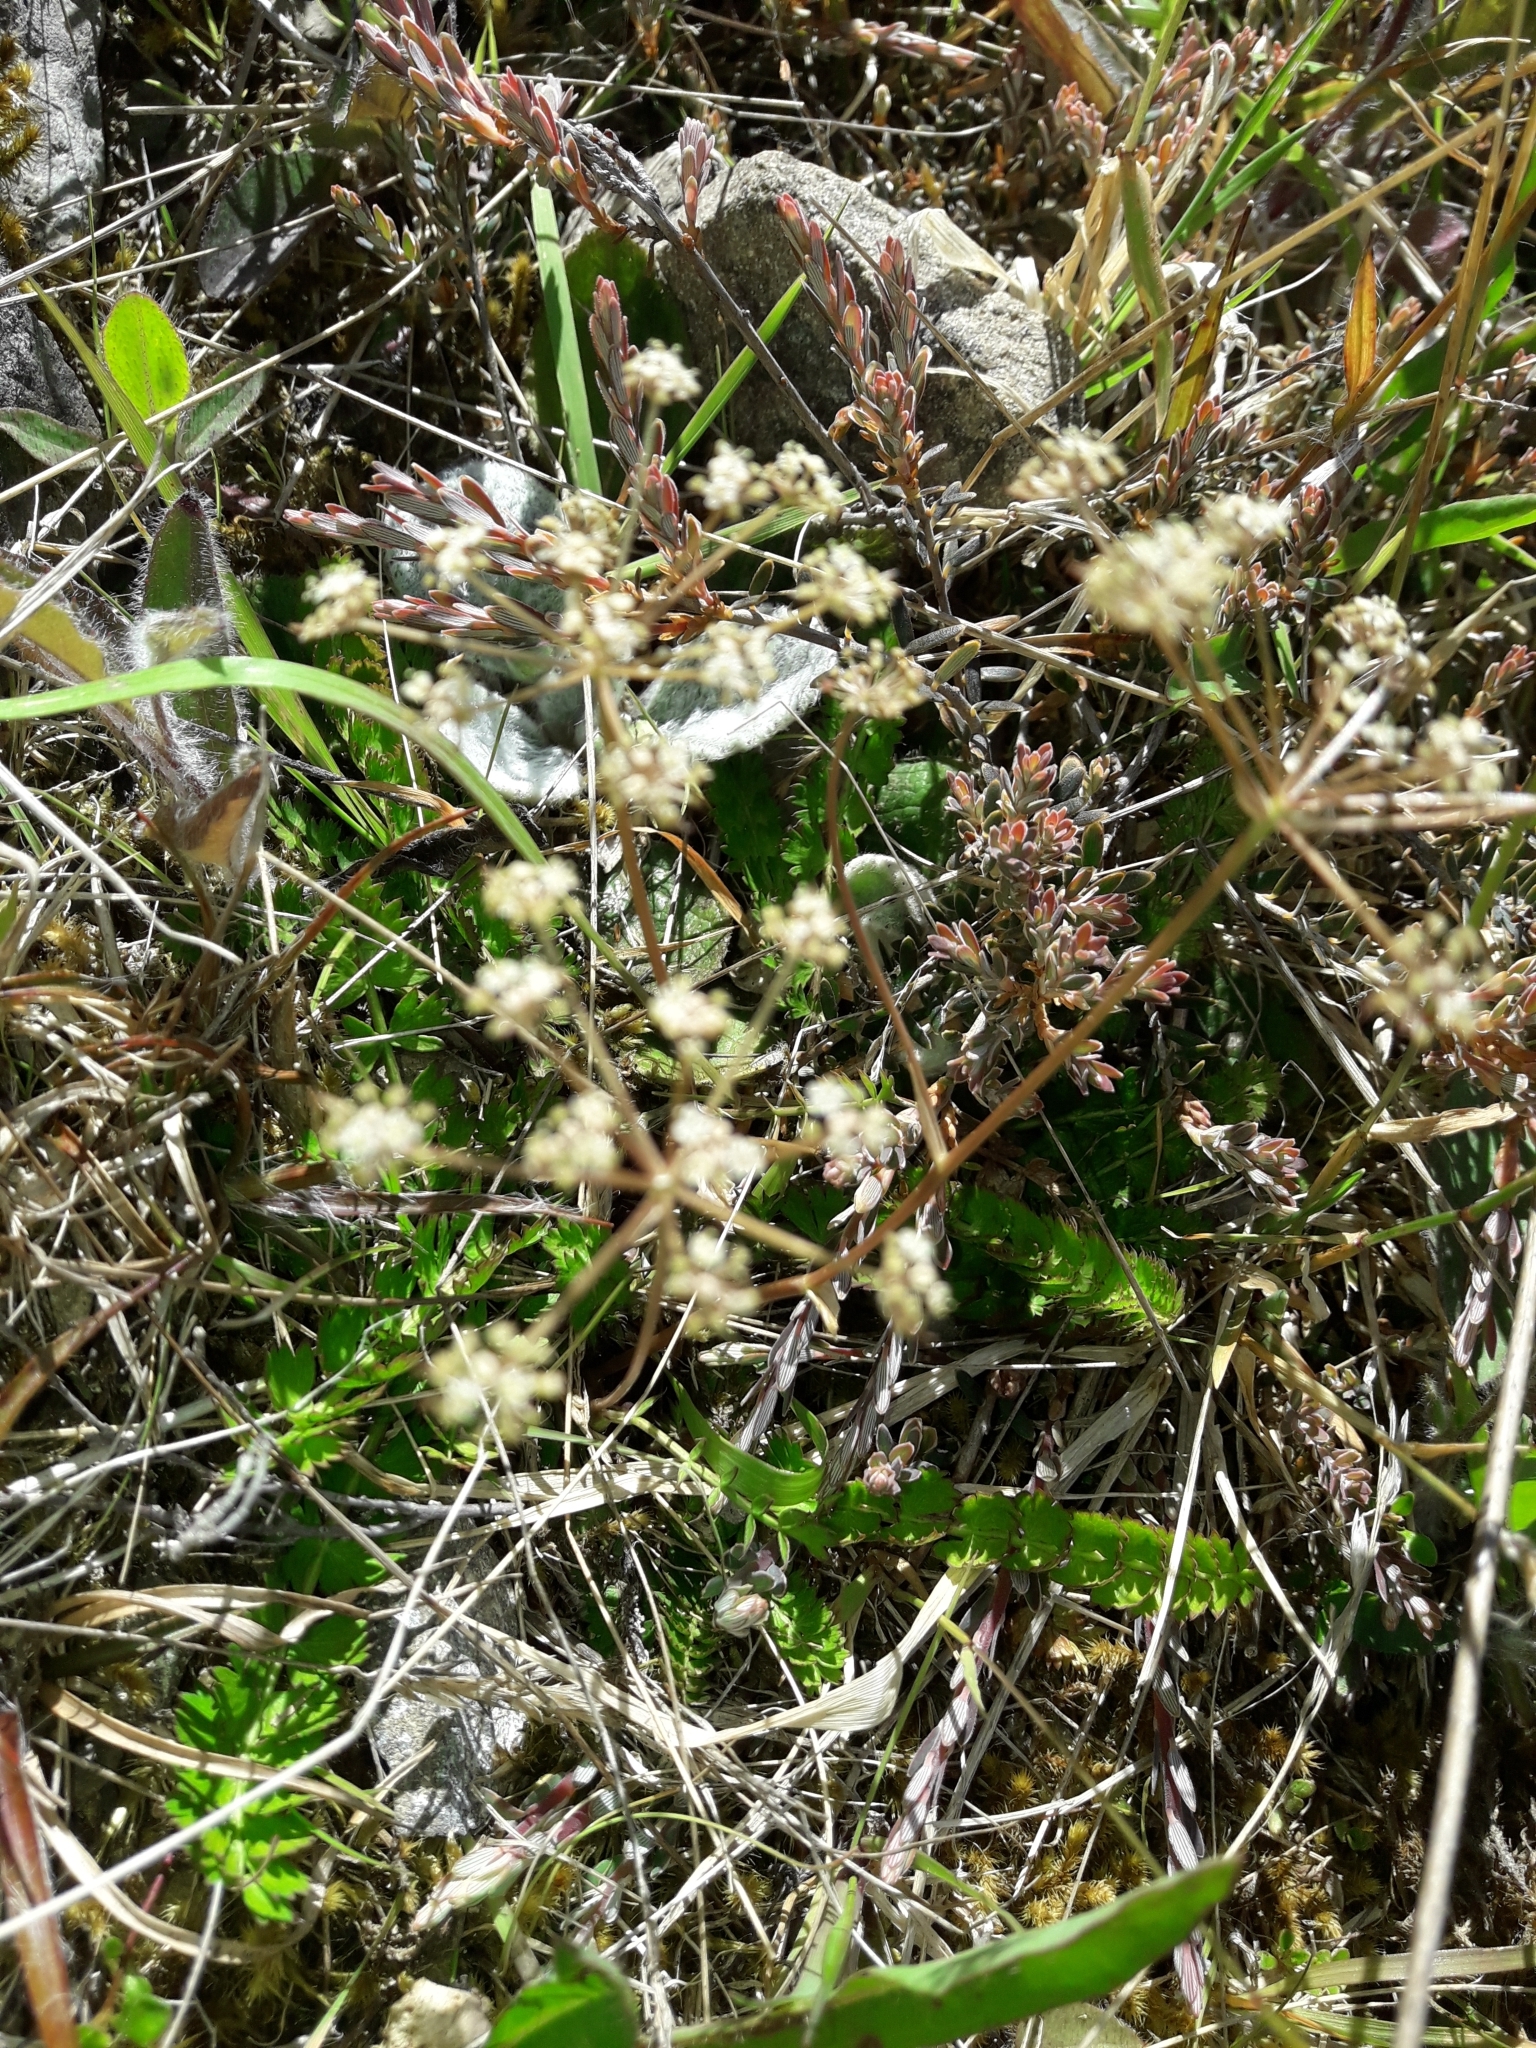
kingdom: Plantae
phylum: Tracheophyta
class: Magnoliopsida
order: Apiales
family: Apiaceae
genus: Anisotome
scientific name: Anisotome aromatica
